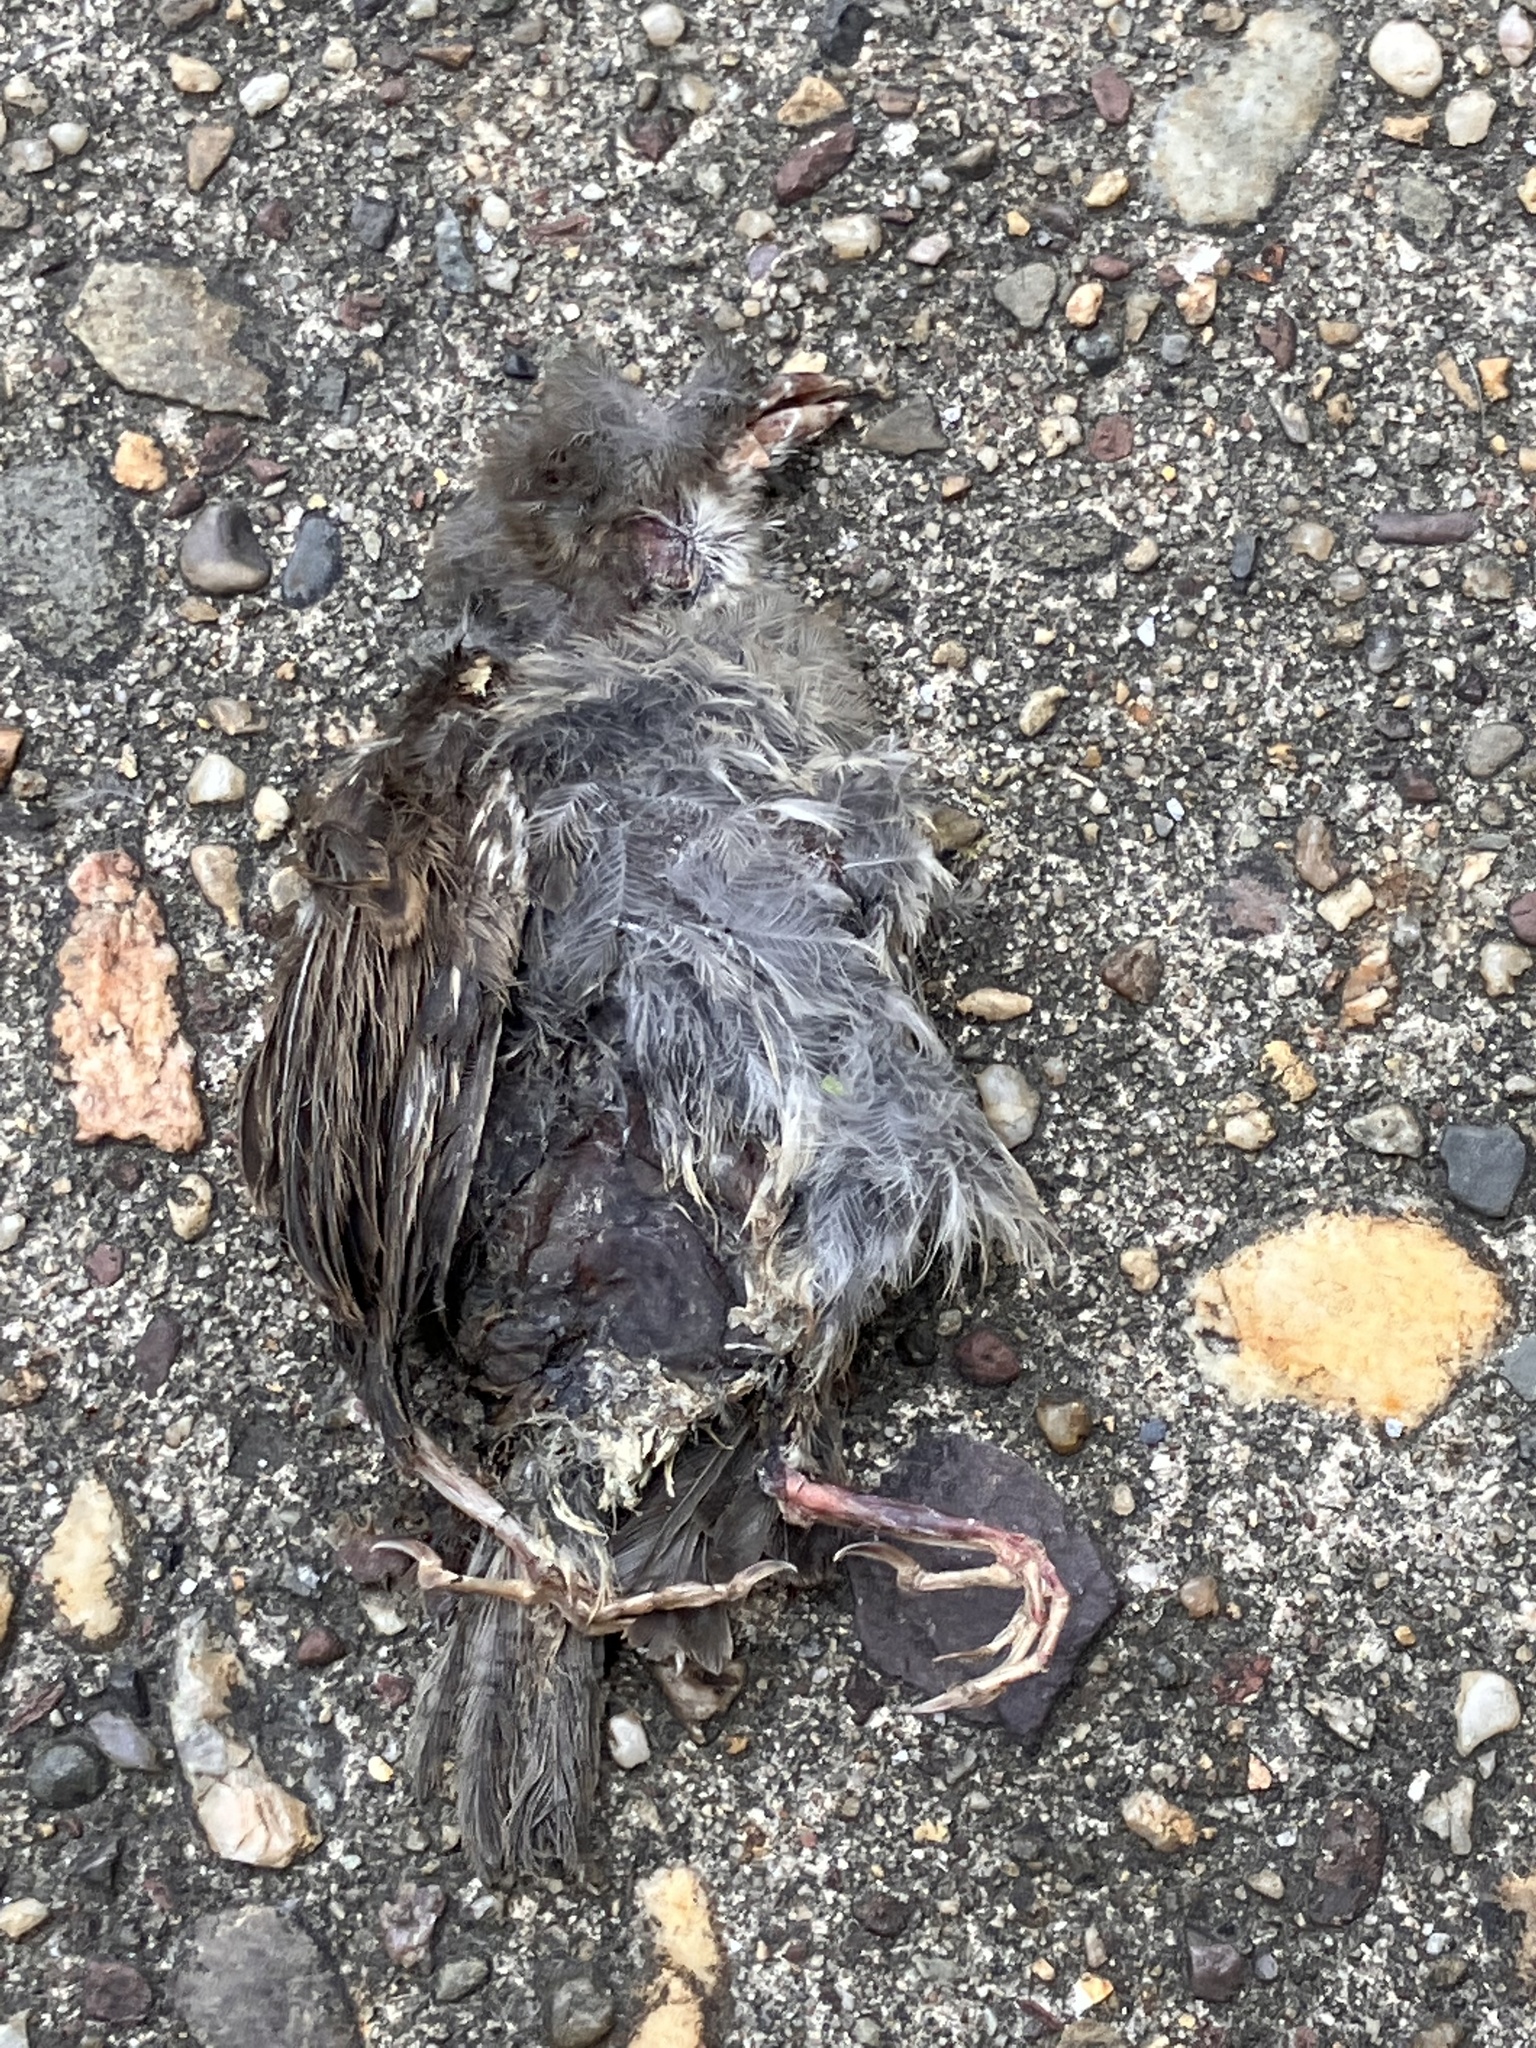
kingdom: Animalia
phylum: Chordata
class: Aves
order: Passeriformes
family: Passeridae
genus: Passer
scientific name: Passer domesticus
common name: House sparrow
